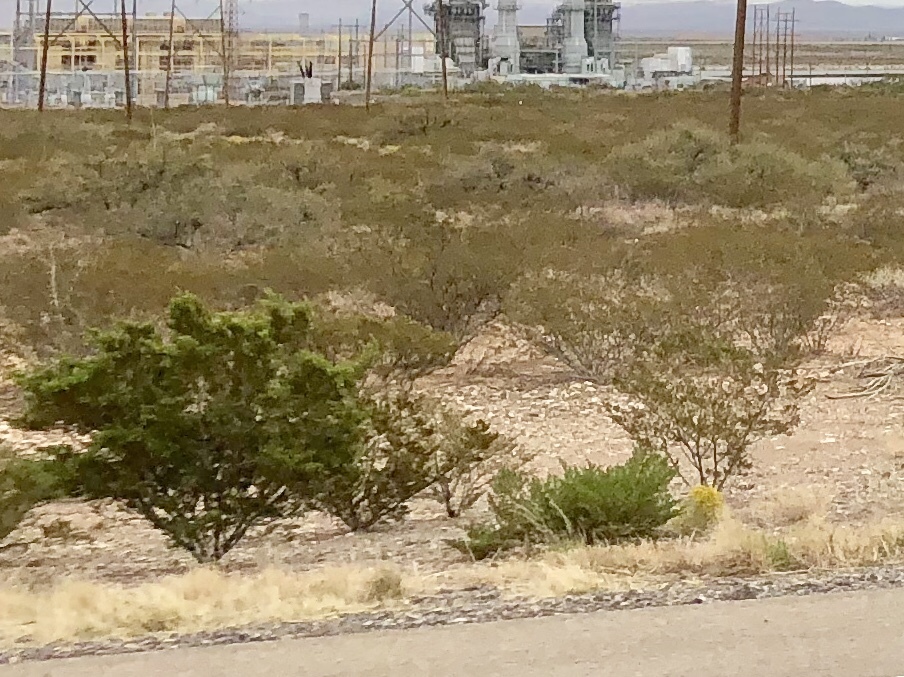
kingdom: Plantae
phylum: Tracheophyta
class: Magnoliopsida
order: Zygophyllales
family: Zygophyllaceae
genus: Larrea
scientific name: Larrea tridentata
